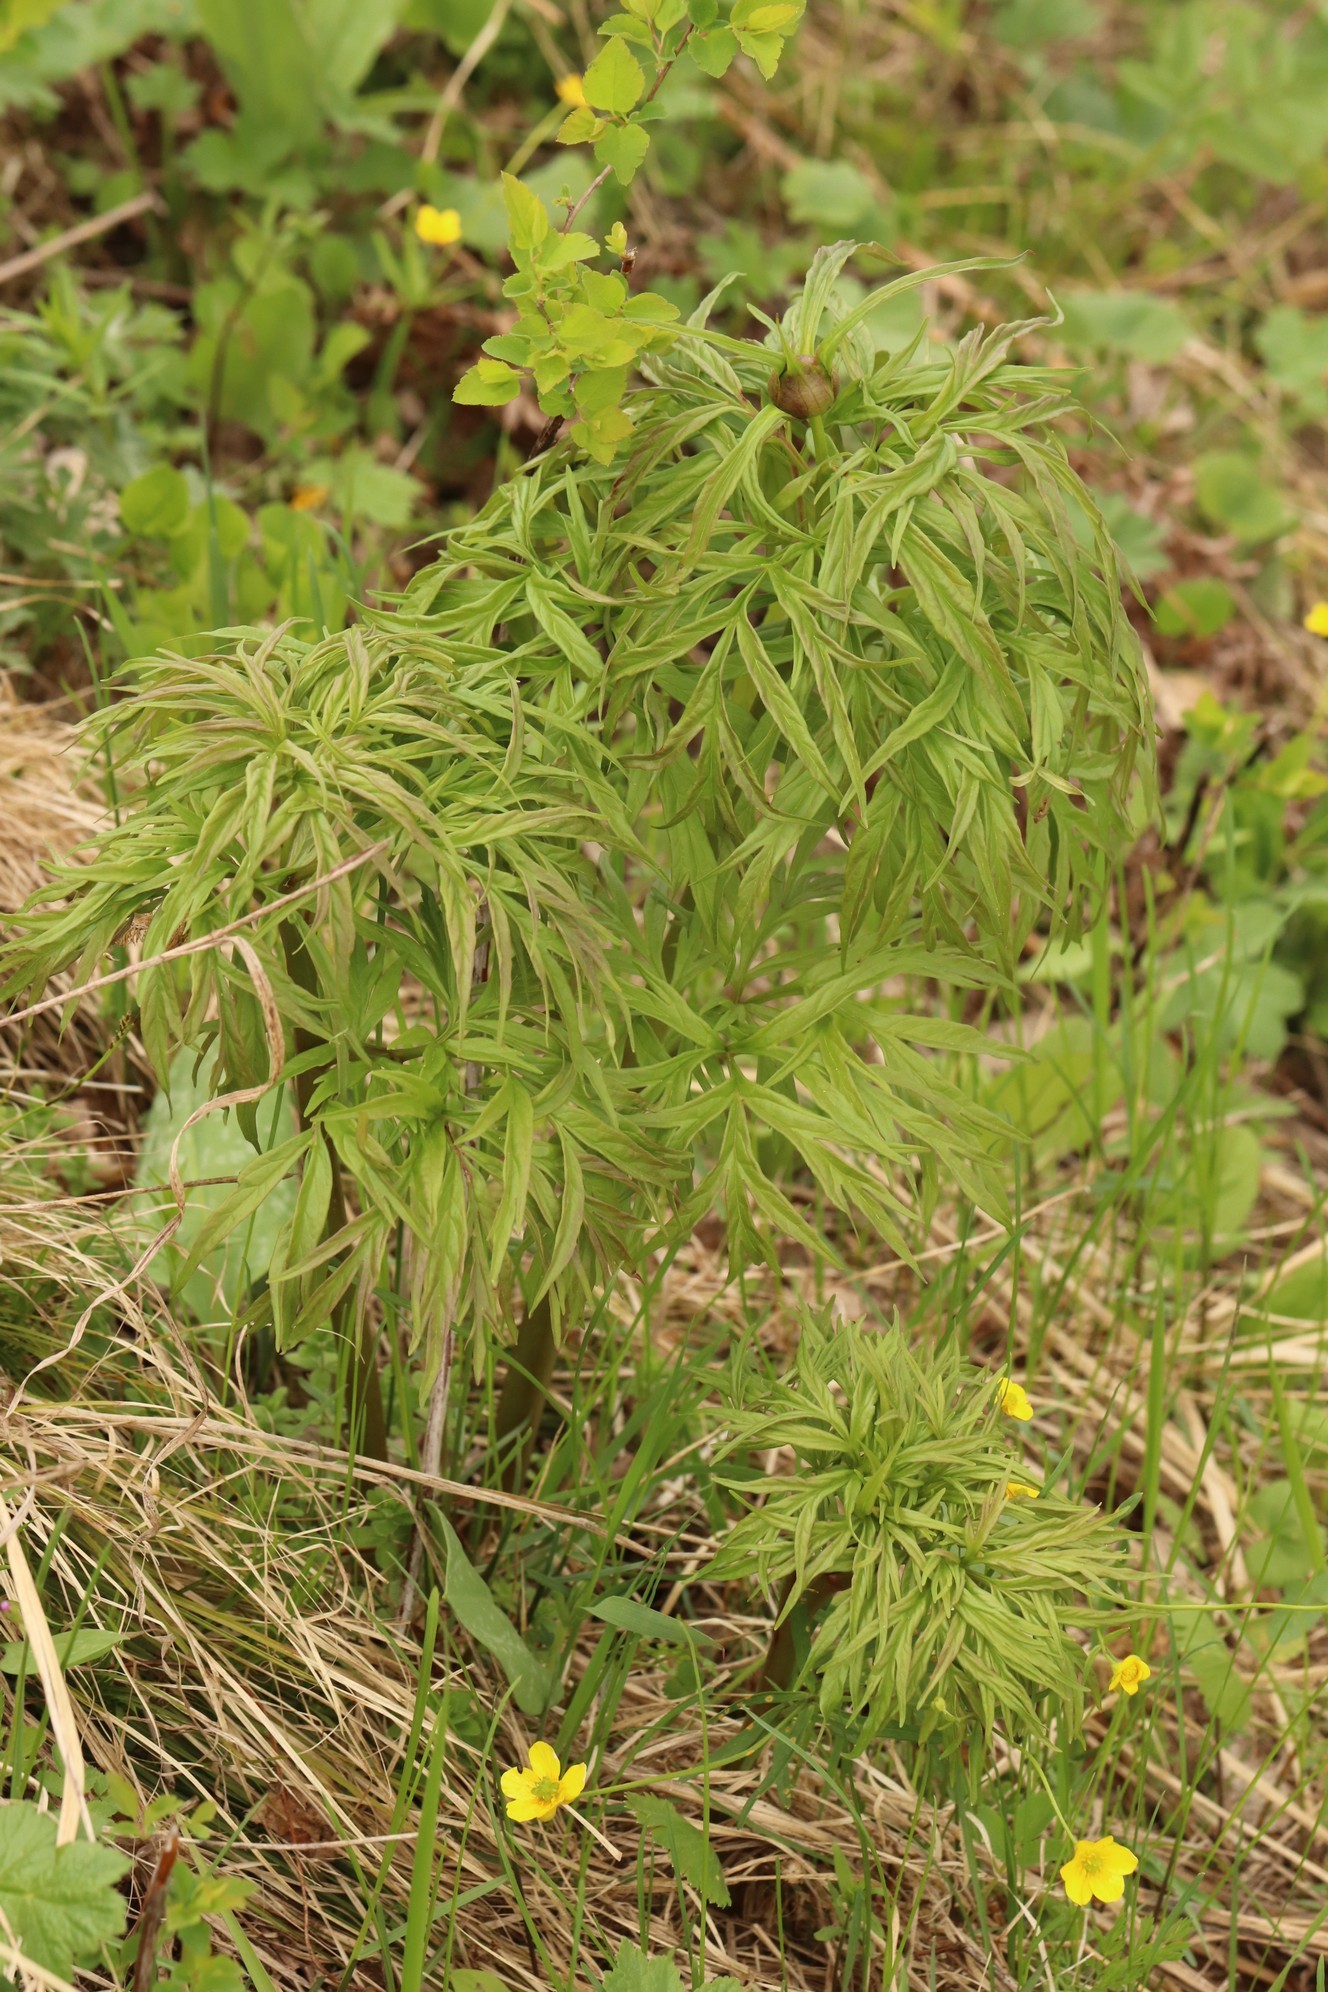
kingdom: Plantae
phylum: Tracheophyta
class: Magnoliopsida
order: Saxifragales
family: Paeoniaceae
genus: Paeonia
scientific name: Paeonia anomala
